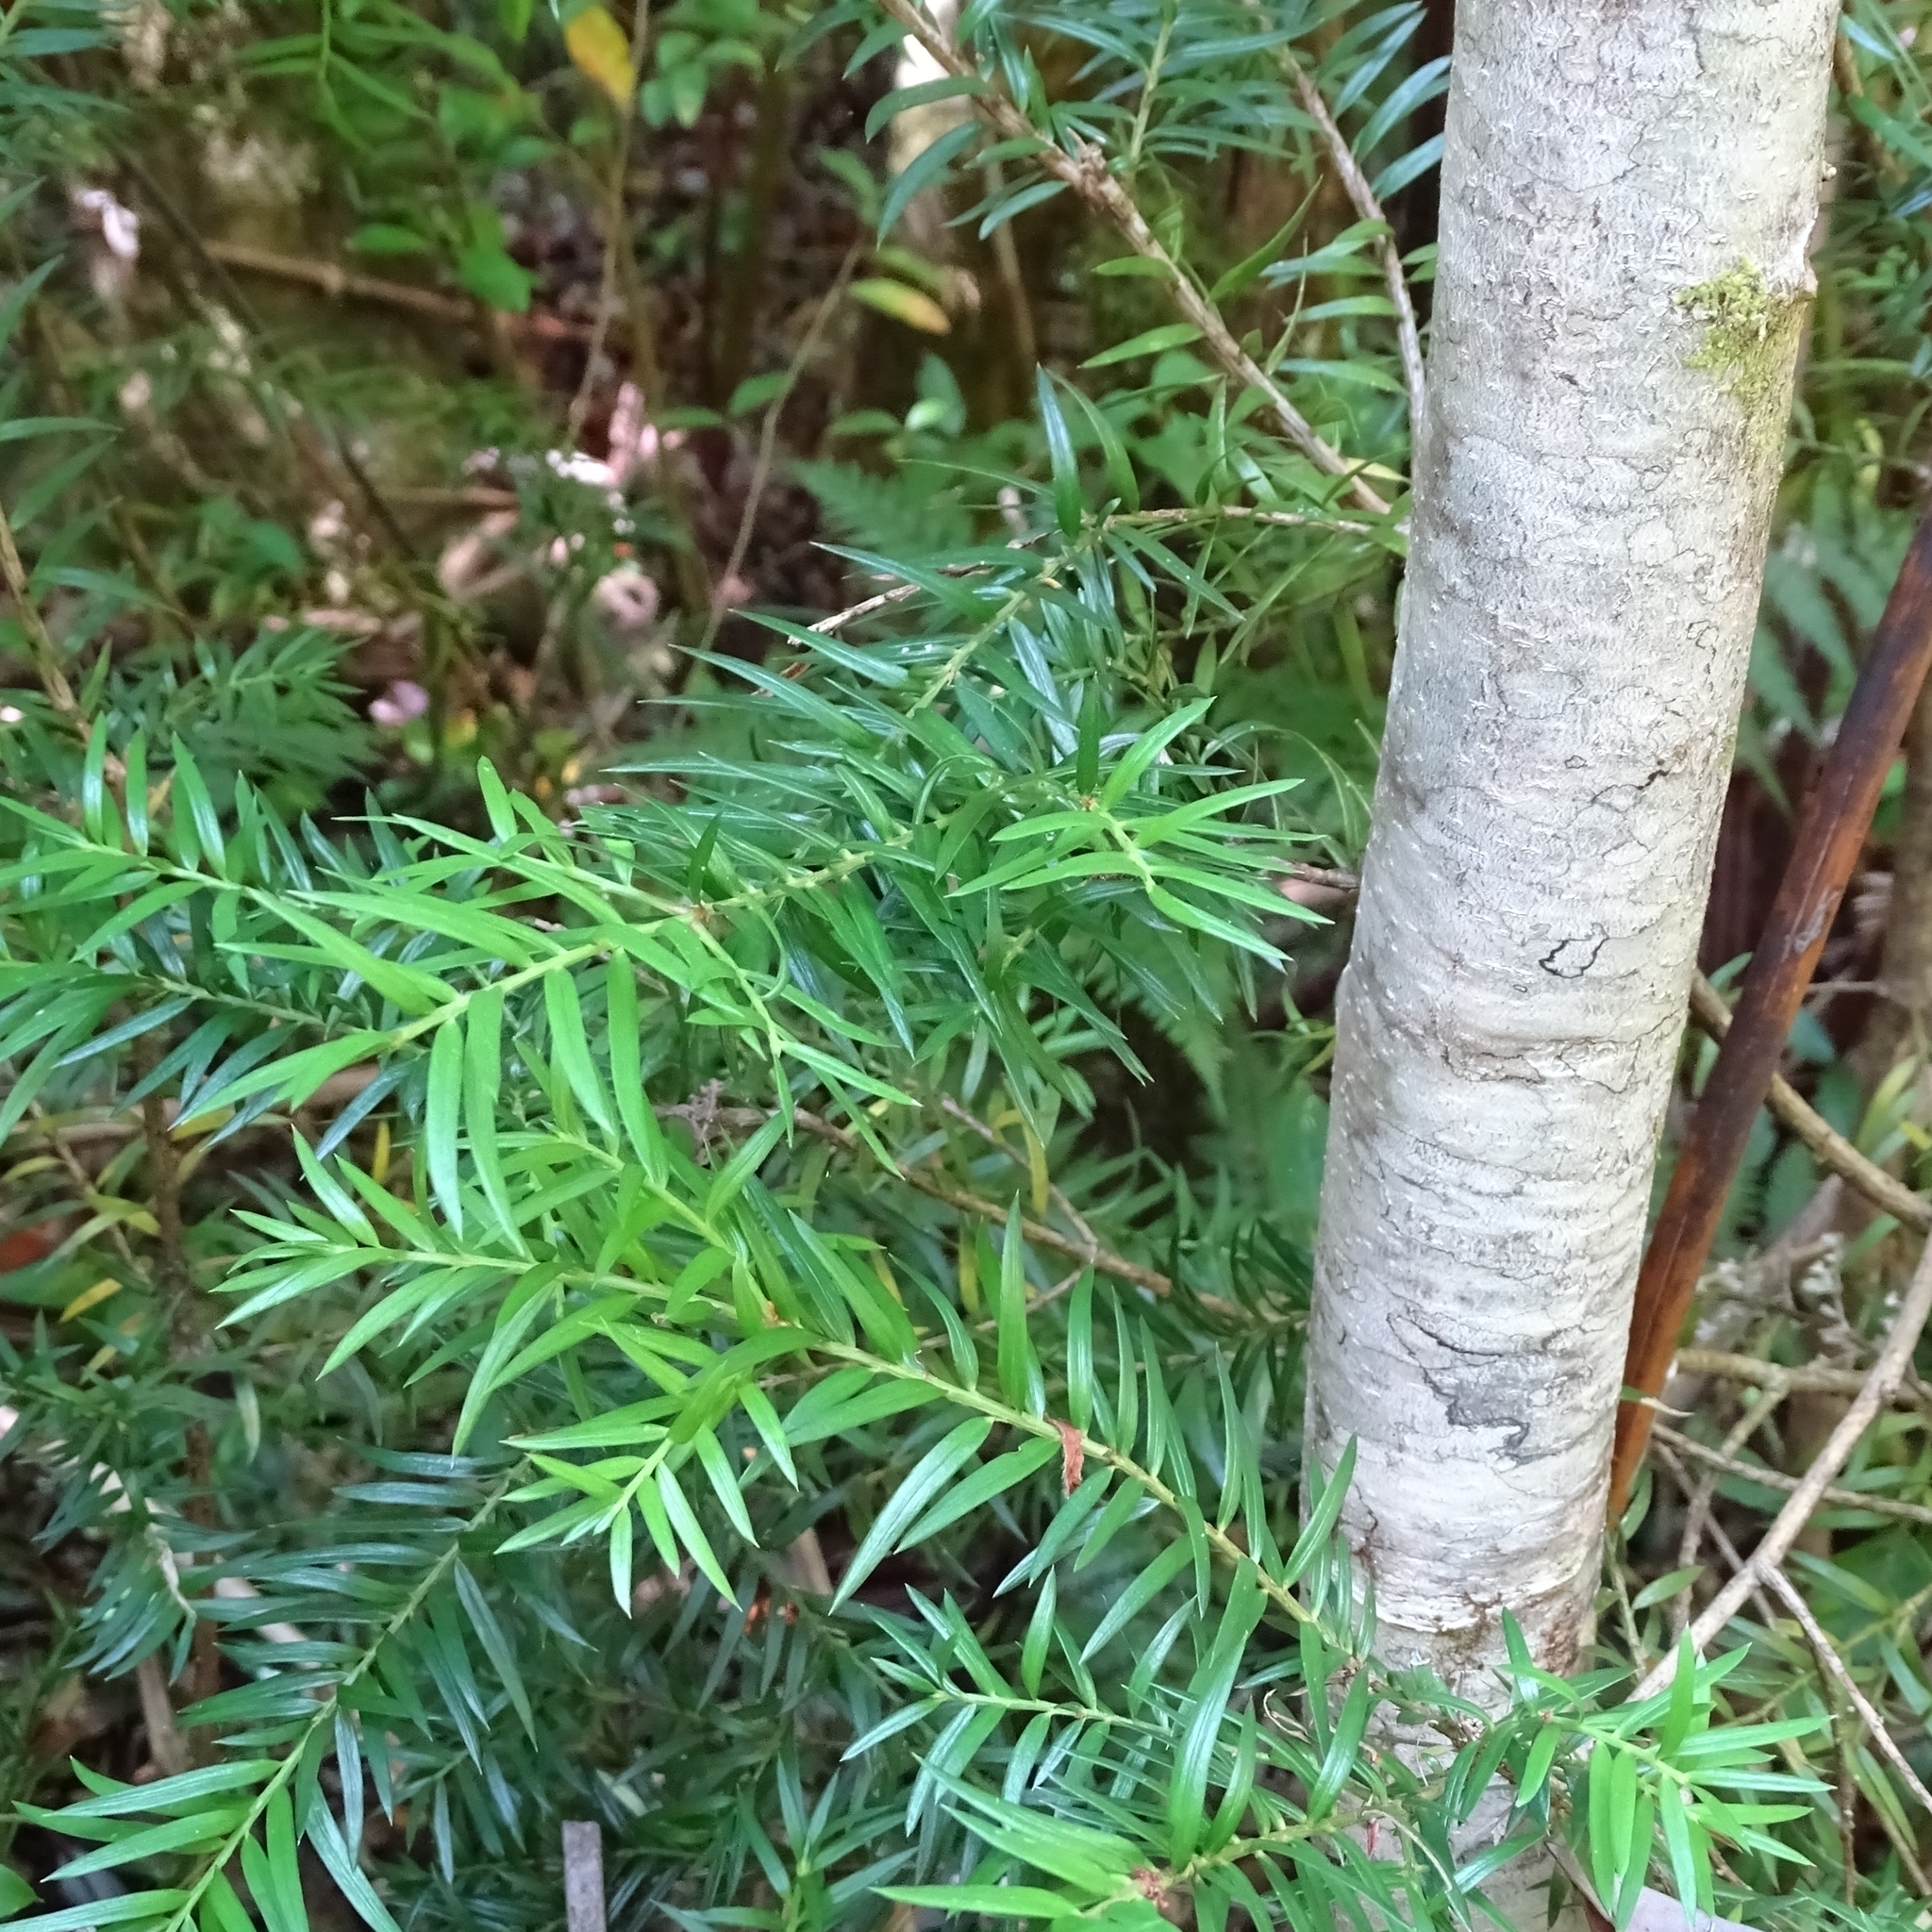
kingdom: Plantae
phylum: Tracheophyta
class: Pinopsida
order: Pinales
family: Podocarpaceae
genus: Saxegothaea
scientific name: Saxegothaea conspicua
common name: Prince albert's yew
